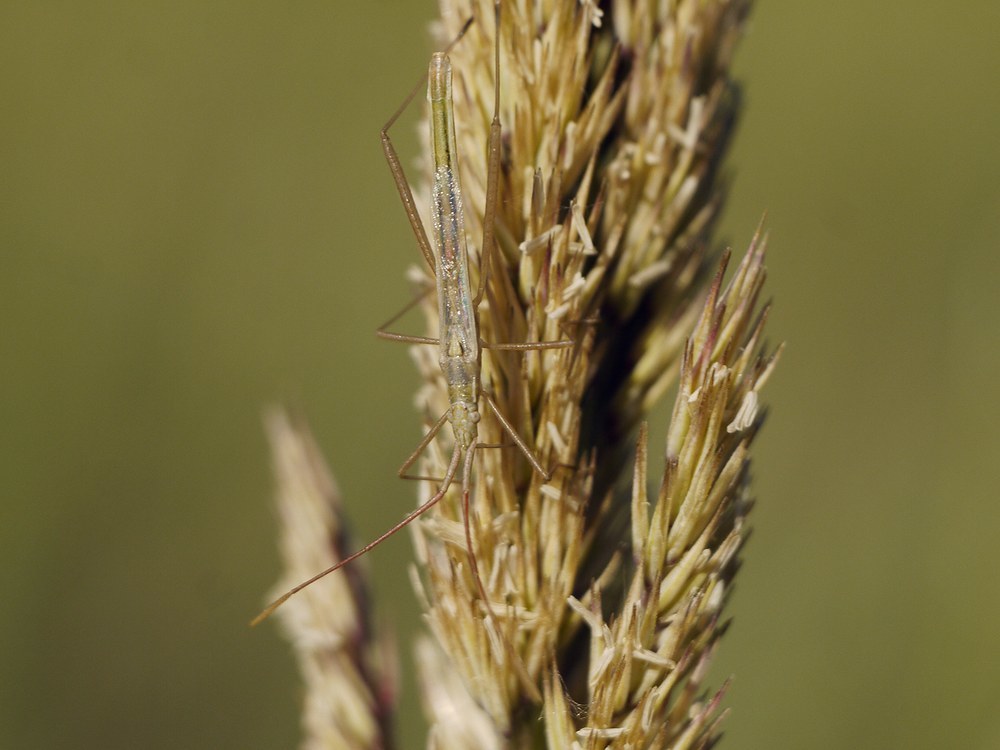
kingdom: Animalia
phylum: Arthropoda
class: Insecta
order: Hemiptera
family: Rhopalidae
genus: Chorosoma
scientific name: Chorosoma schillingii
